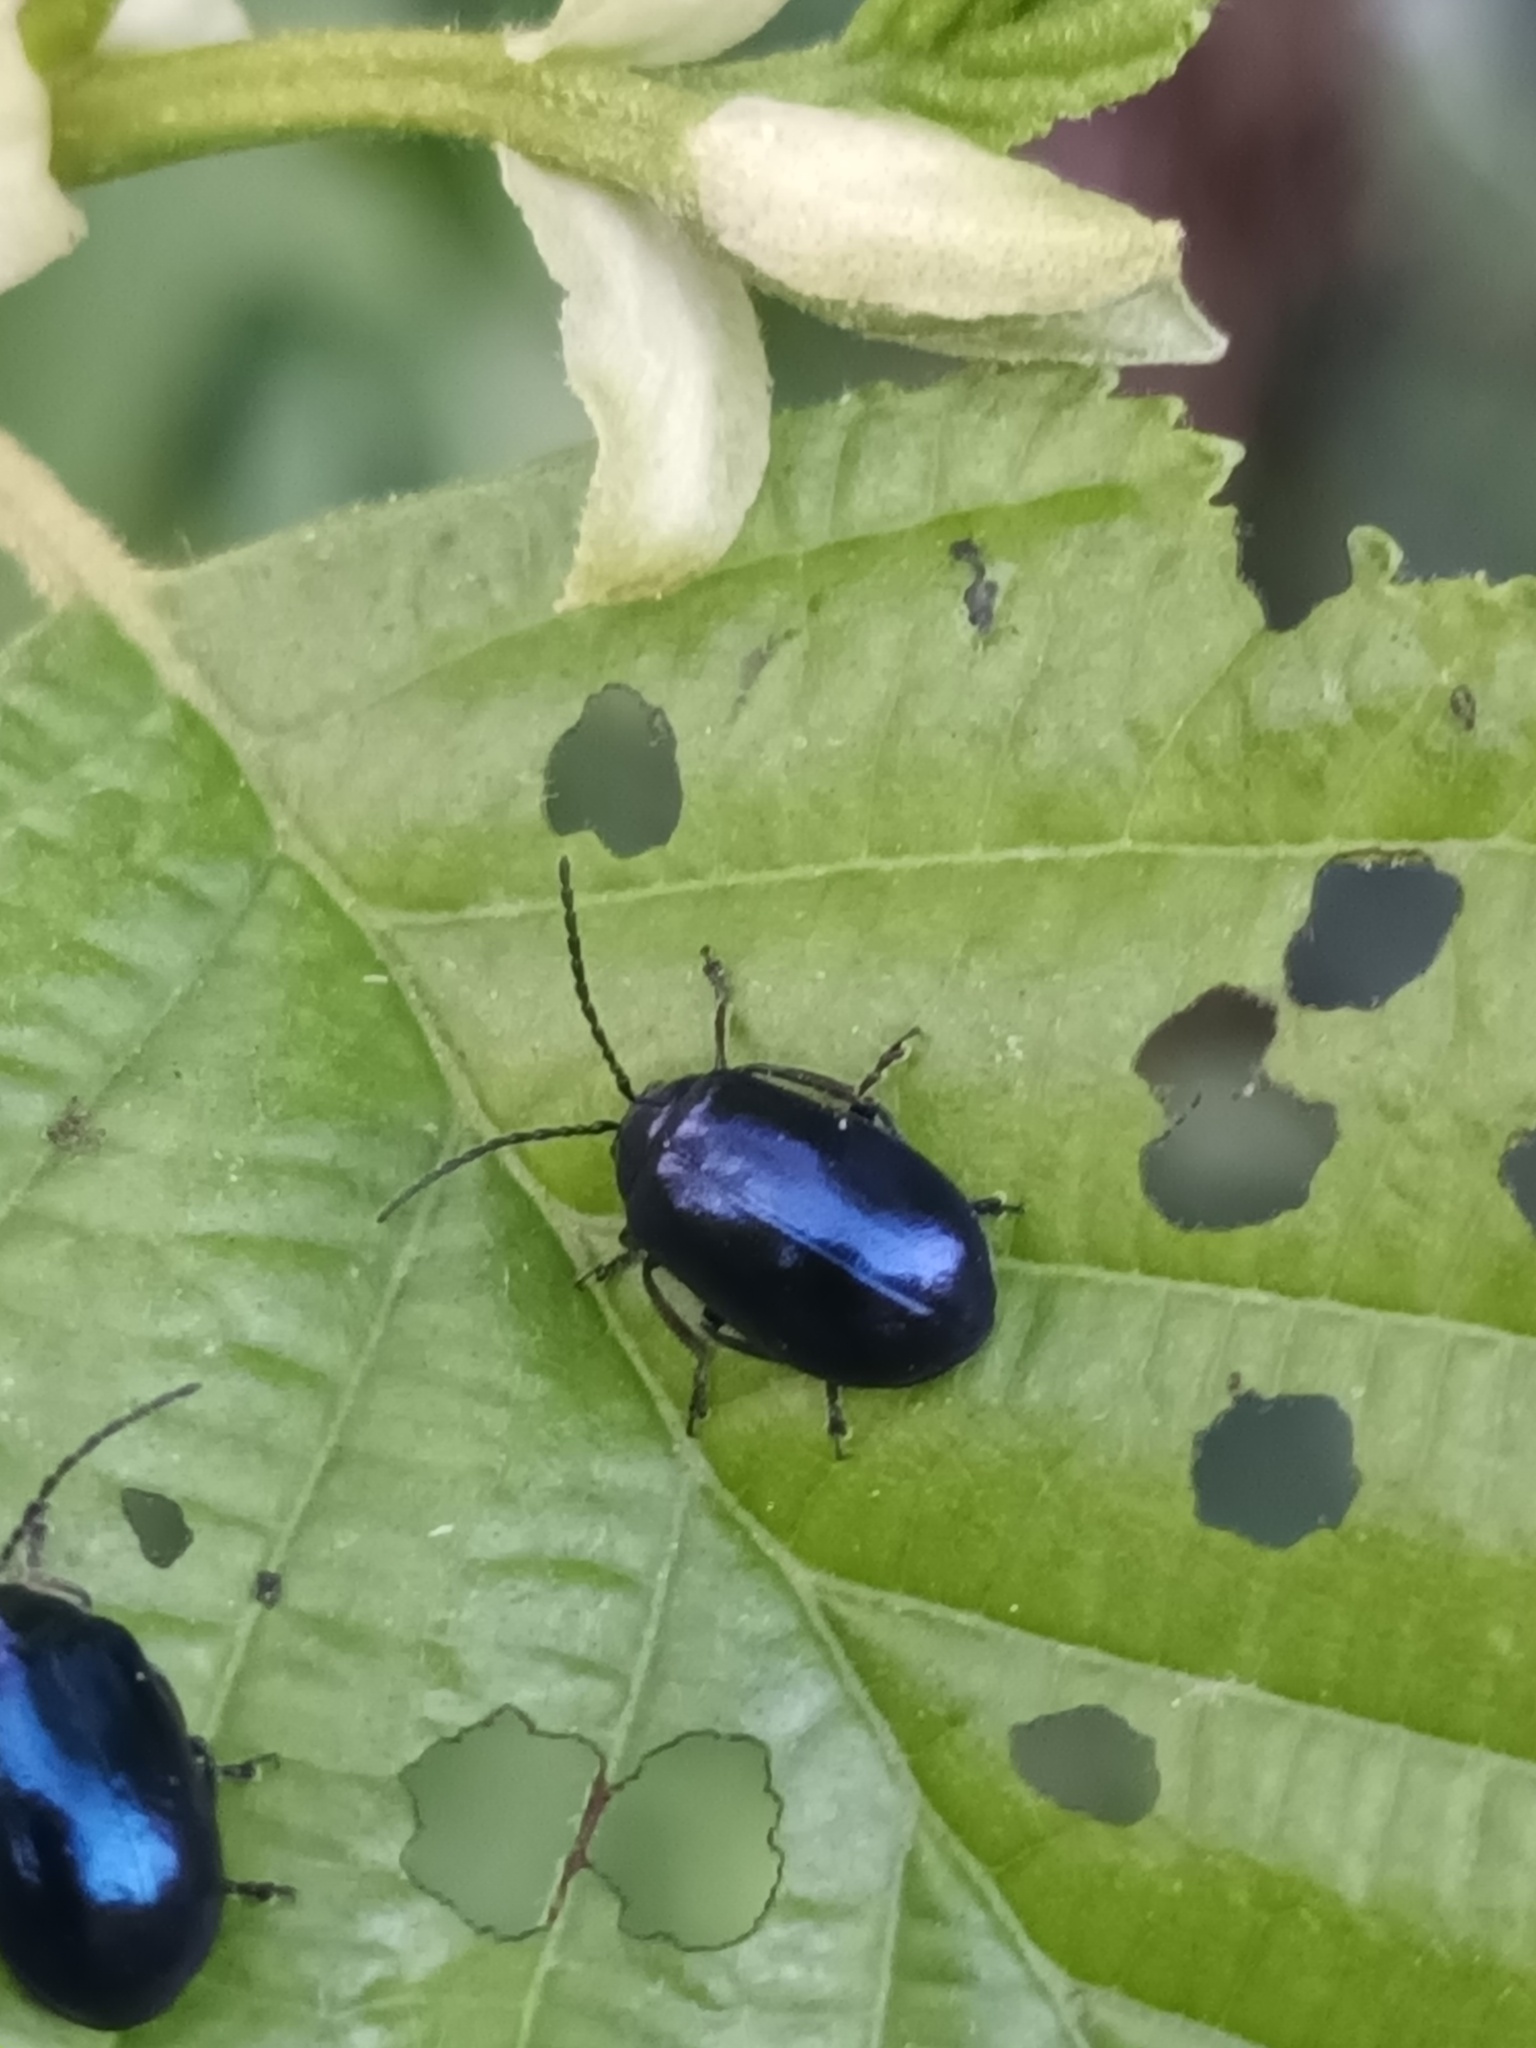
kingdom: Animalia
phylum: Arthropoda
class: Insecta
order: Coleoptera
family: Chrysomelidae
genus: Agelastica
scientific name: Agelastica alni
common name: Alder leaf beetle
